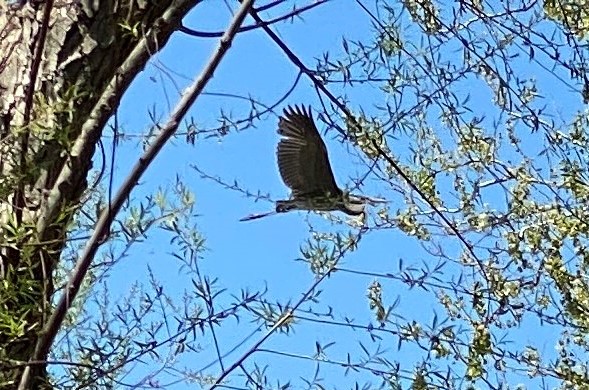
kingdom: Animalia
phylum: Chordata
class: Aves
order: Pelecaniformes
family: Ardeidae
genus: Ardea
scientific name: Ardea herodias
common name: Great blue heron
